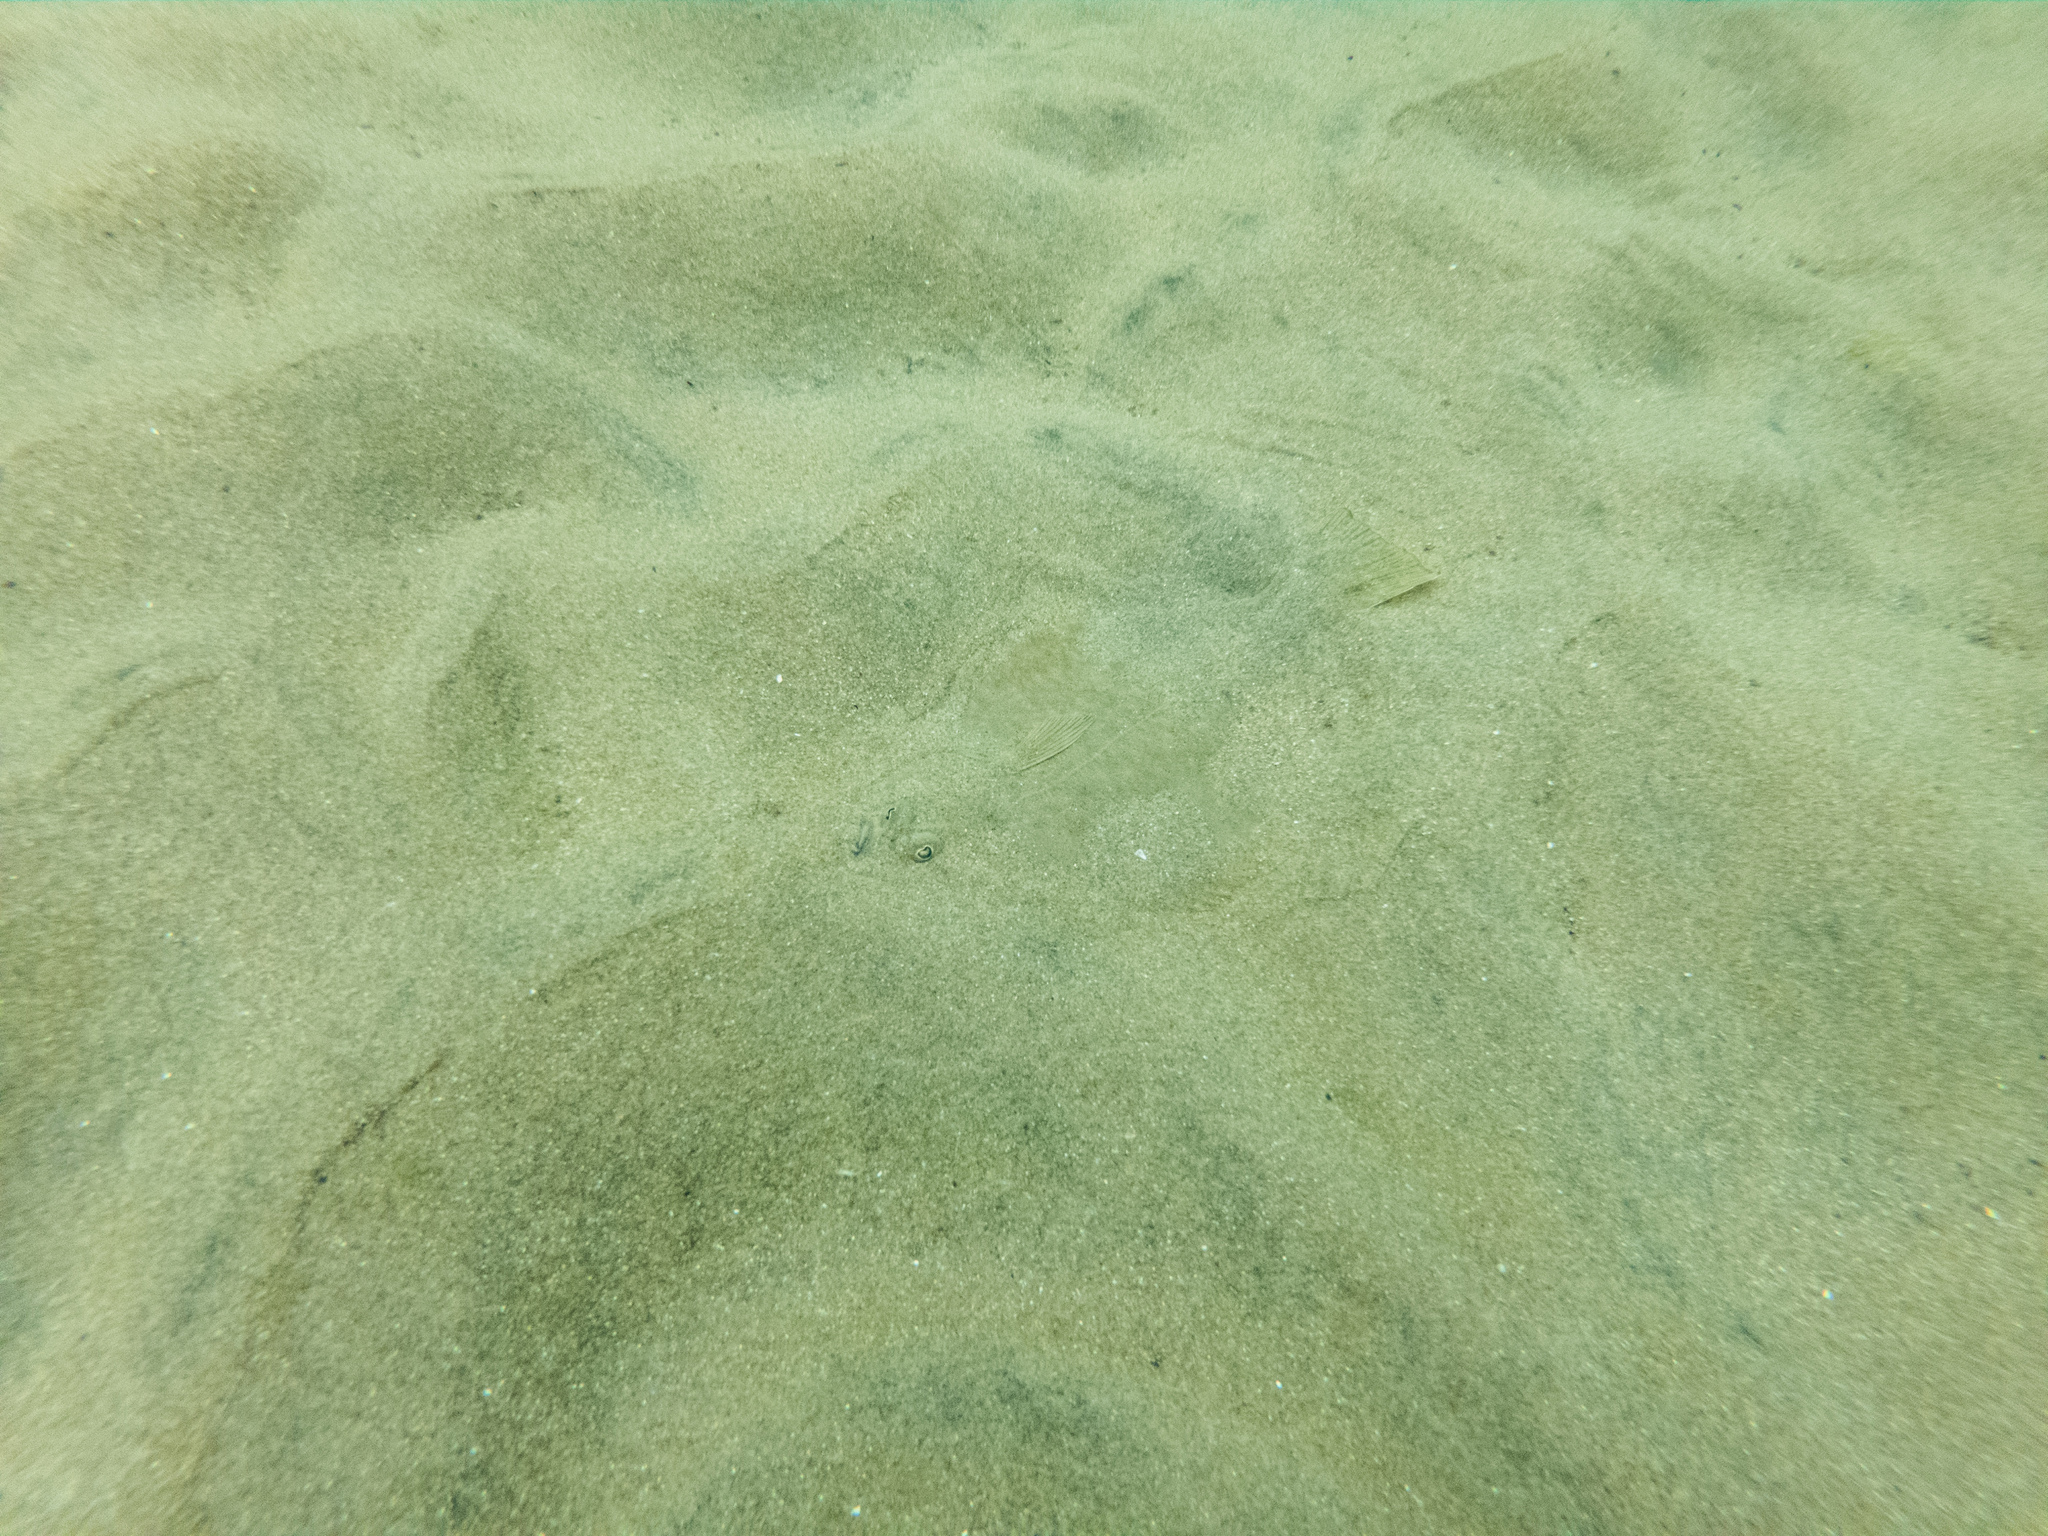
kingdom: Animalia
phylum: Chordata
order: Pleuronectiformes
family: Pleuronectidae
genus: Rhombosolea
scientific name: Rhombosolea plebeia
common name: Dab
